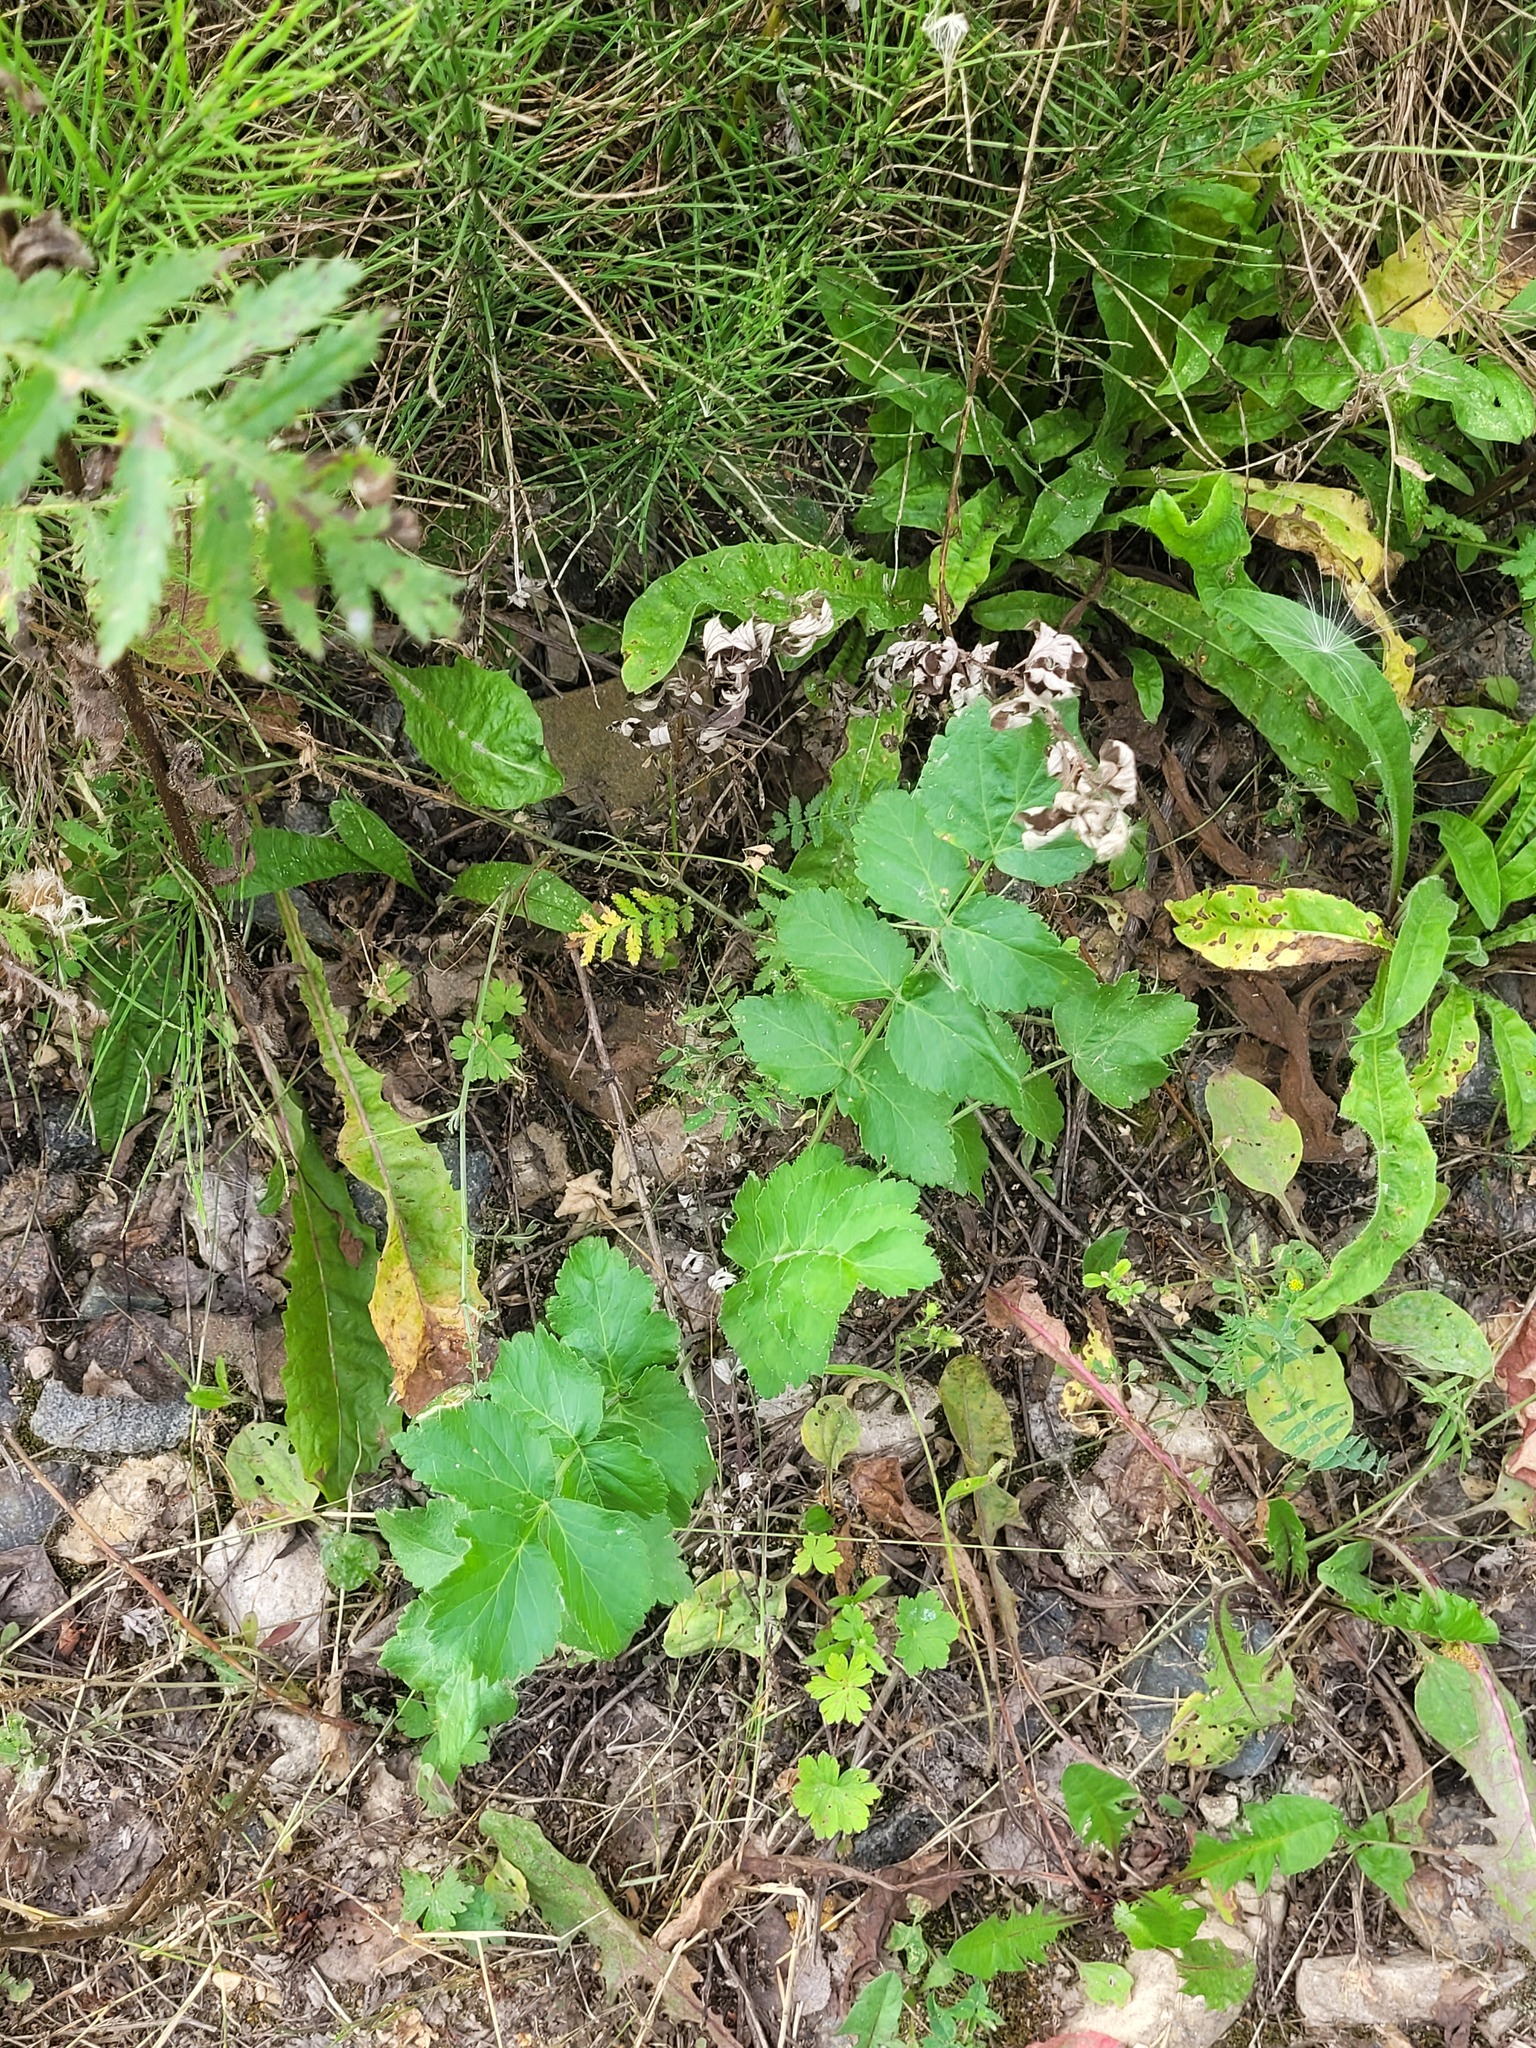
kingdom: Plantae
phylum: Tracheophyta
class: Magnoliopsida
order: Apiales
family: Apiaceae
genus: Pastinaca
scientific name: Pastinaca sativa
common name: Wild parsnip
